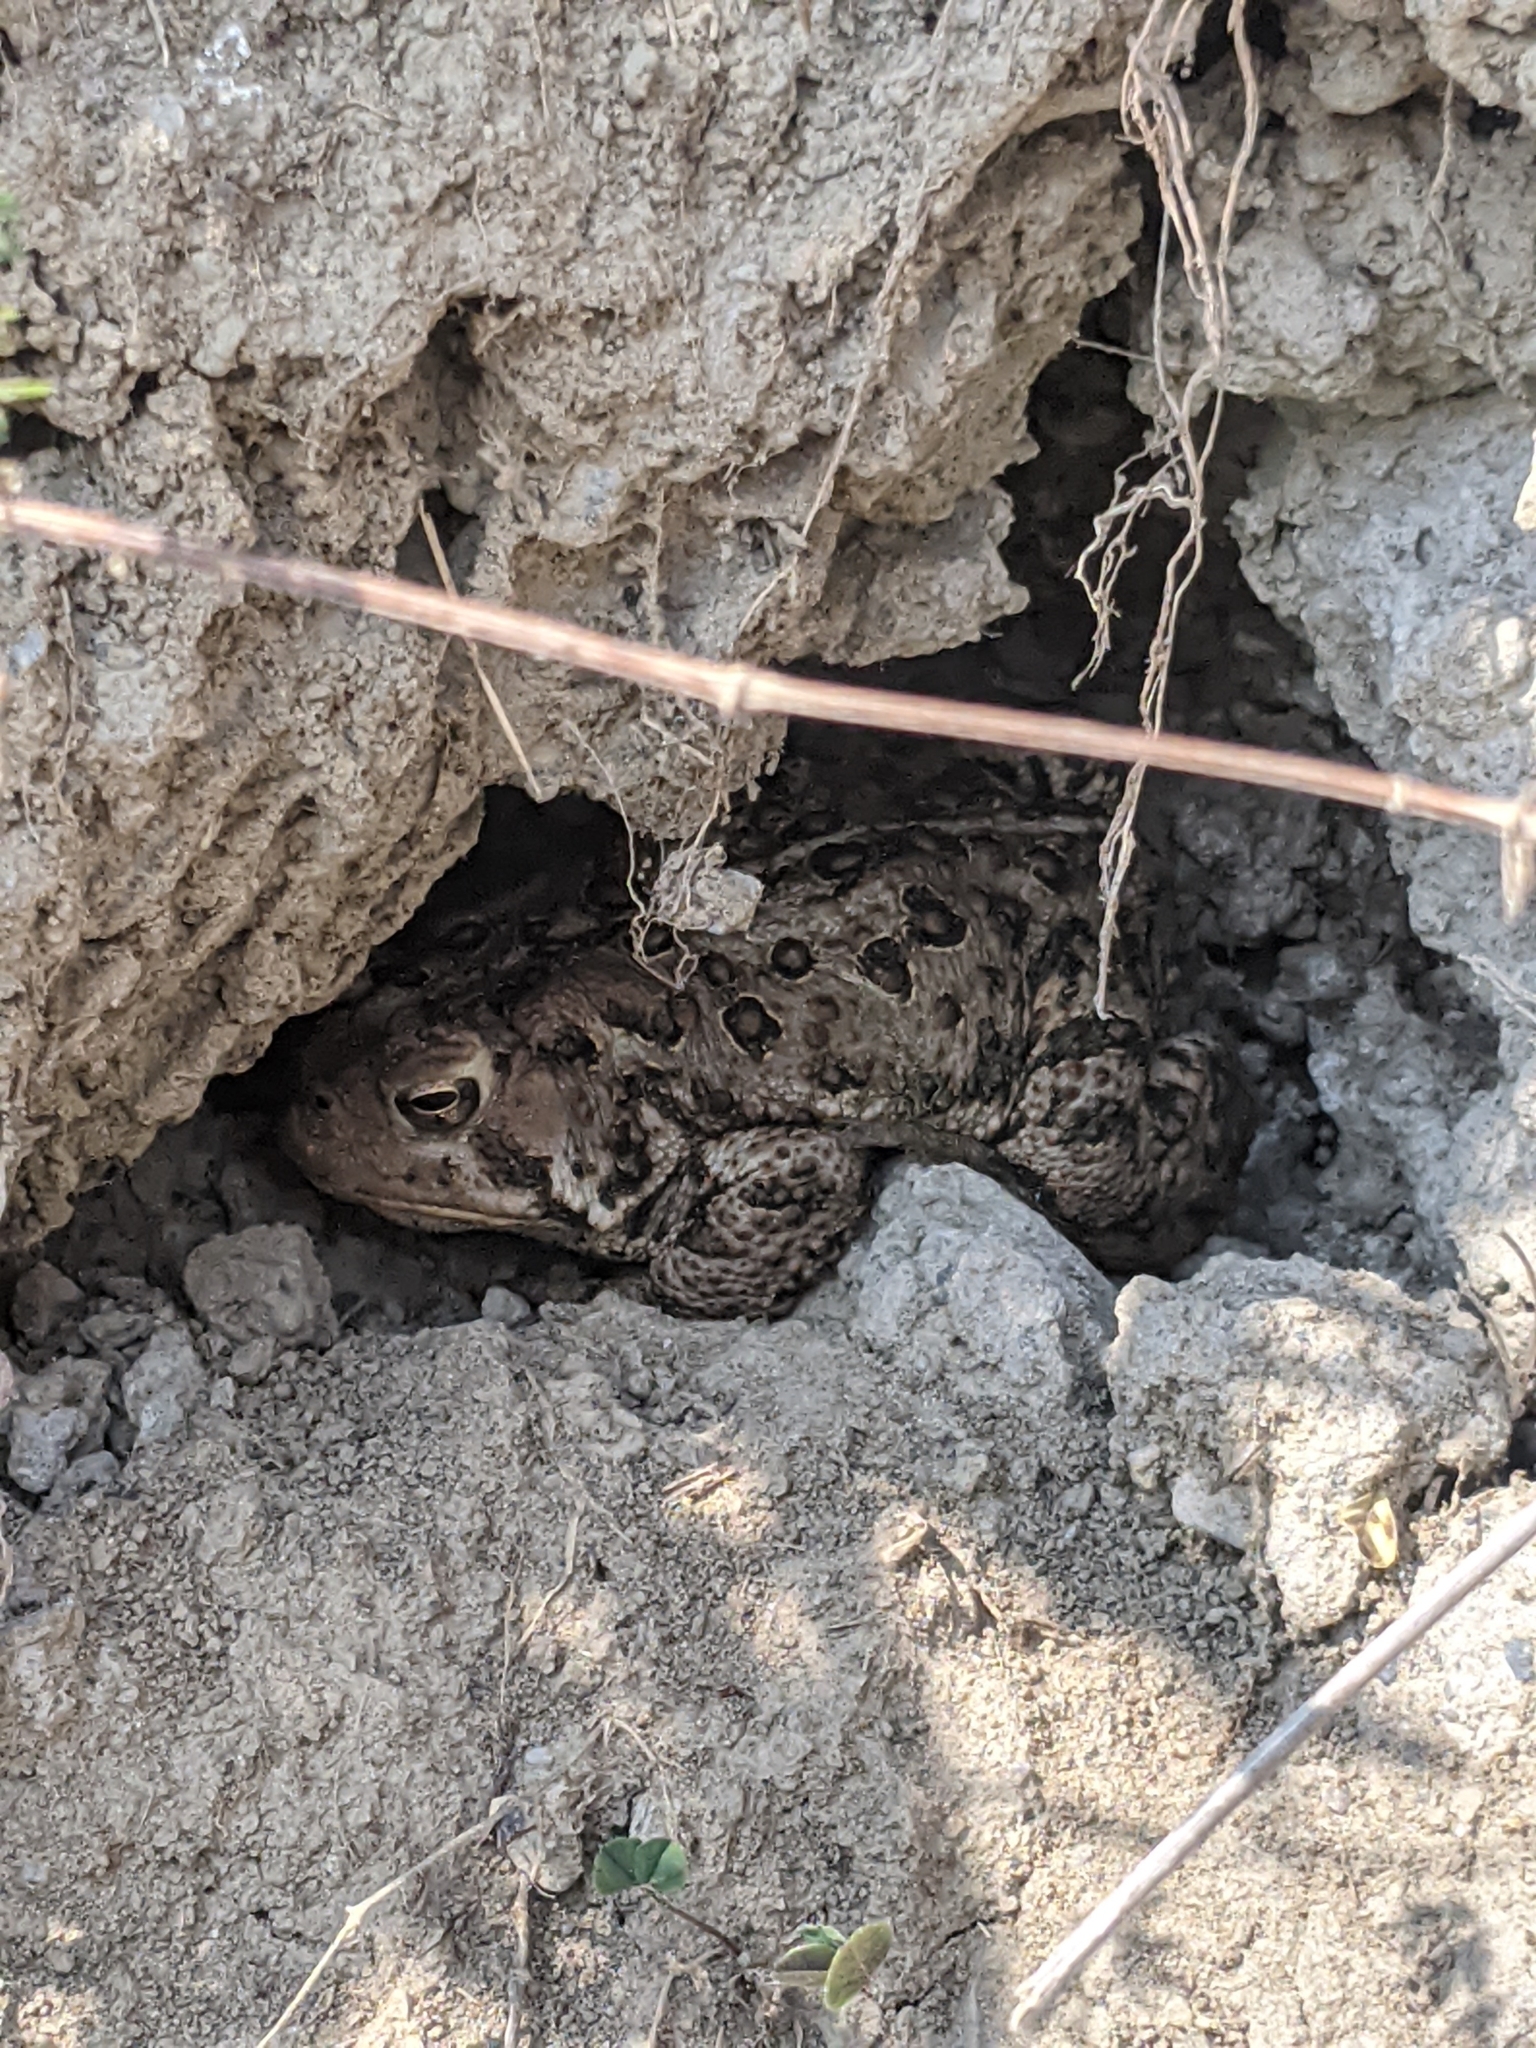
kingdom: Animalia
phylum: Chordata
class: Amphibia
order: Anura
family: Bufonidae
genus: Anaxyrus
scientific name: Anaxyrus americanus
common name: American toad
